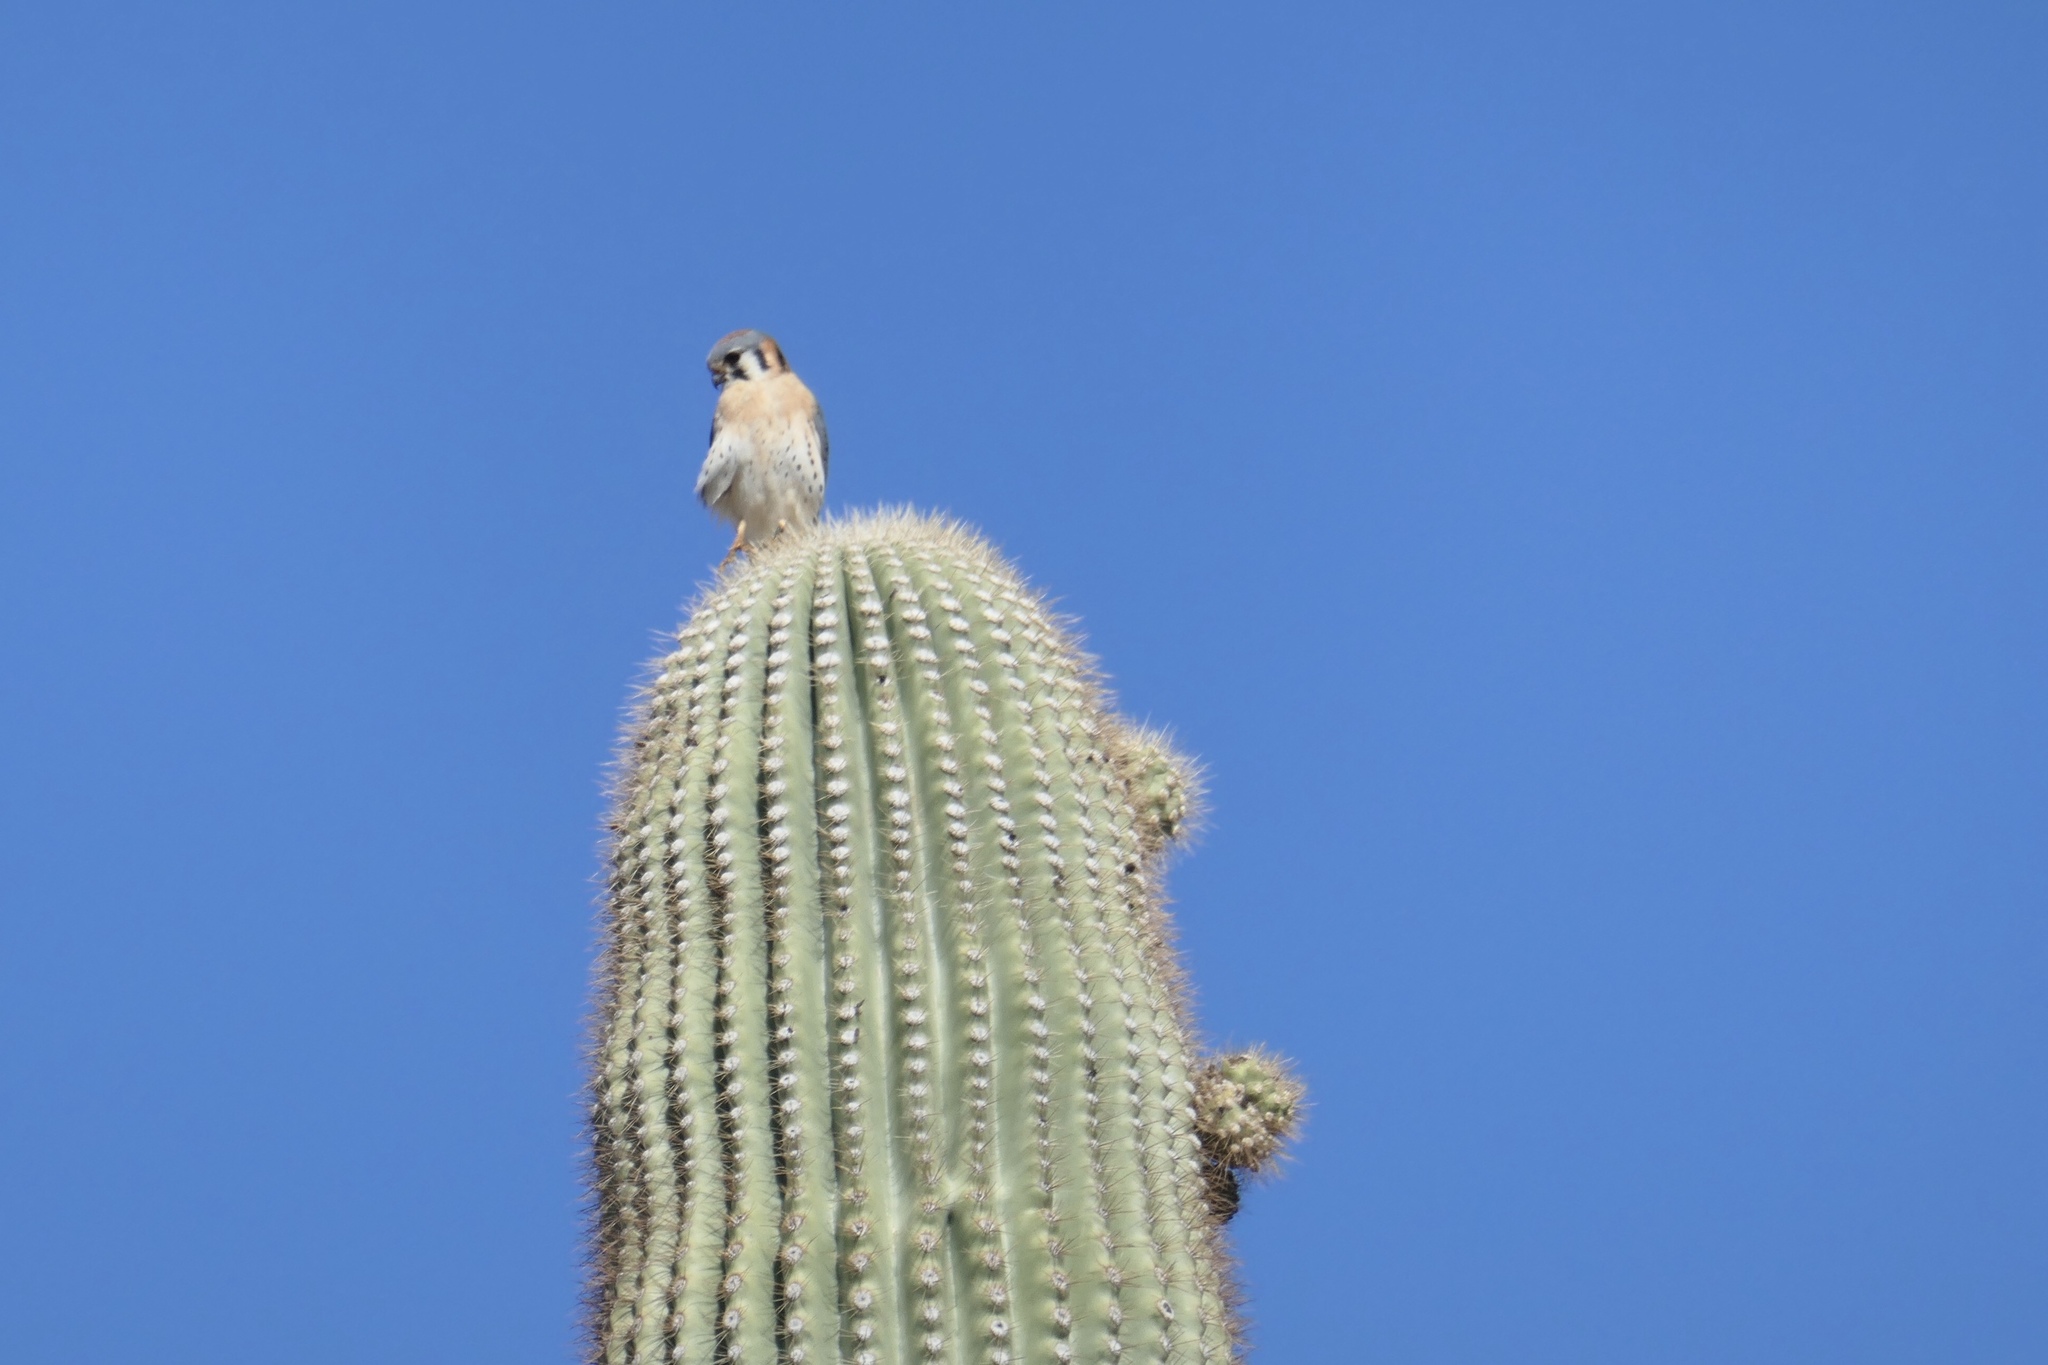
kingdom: Animalia
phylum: Chordata
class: Aves
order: Falconiformes
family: Falconidae
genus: Falco
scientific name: Falco sparverius
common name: American kestrel
